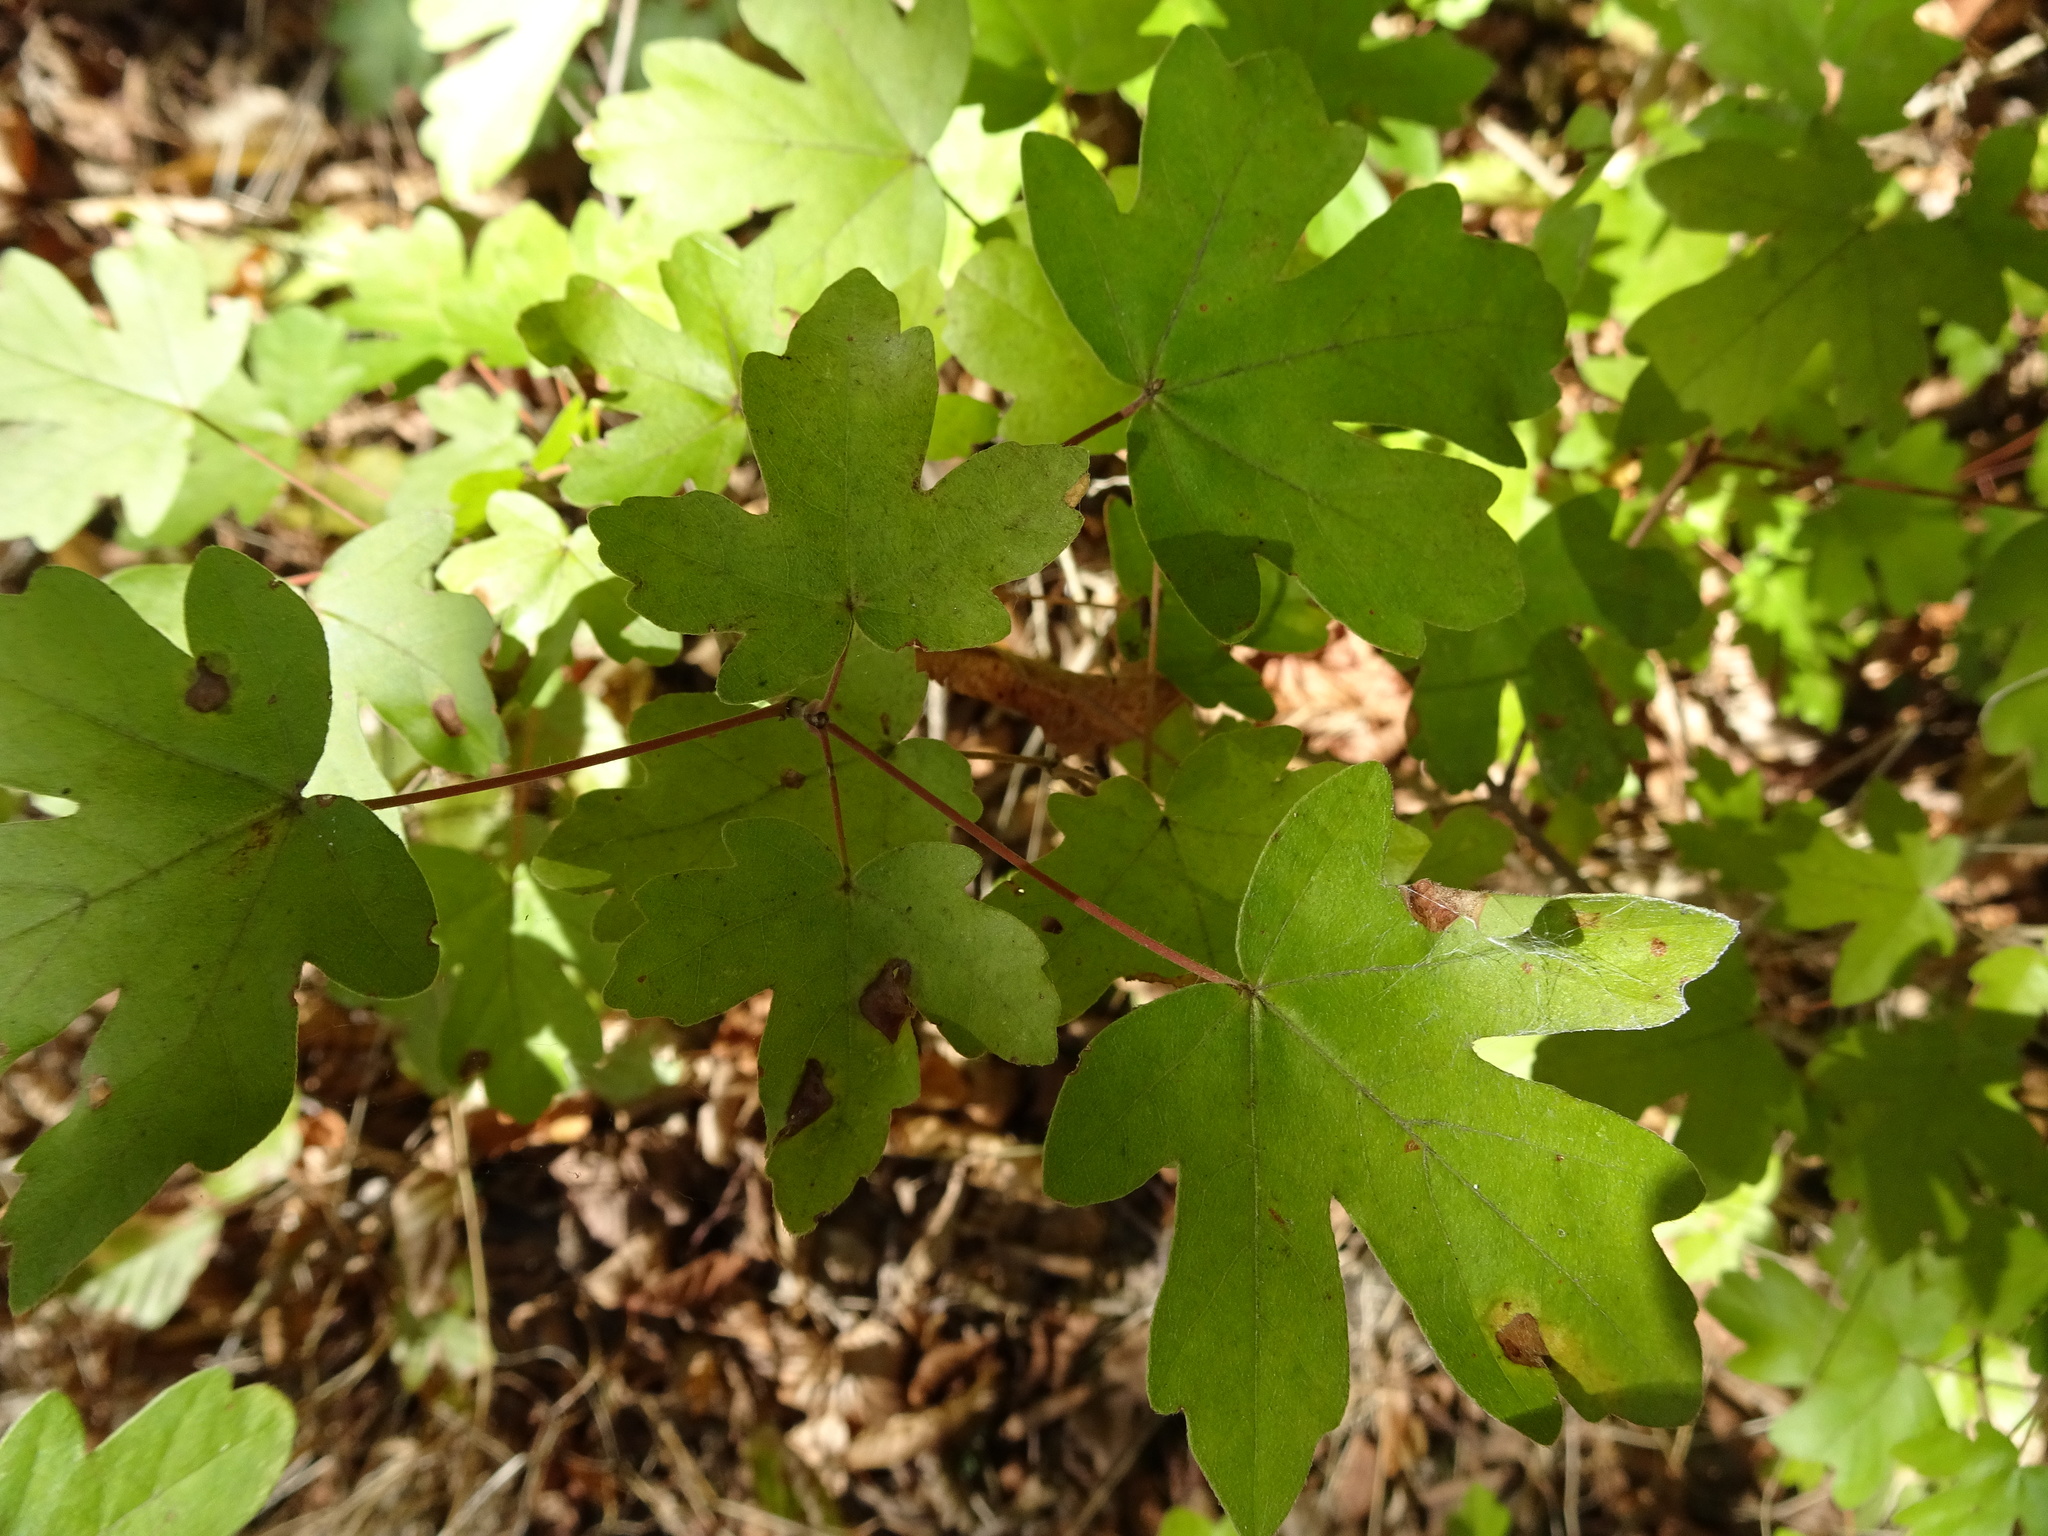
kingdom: Plantae
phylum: Tracheophyta
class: Magnoliopsida
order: Sapindales
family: Sapindaceae
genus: Acer
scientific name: Acer campestre
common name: Field maple
